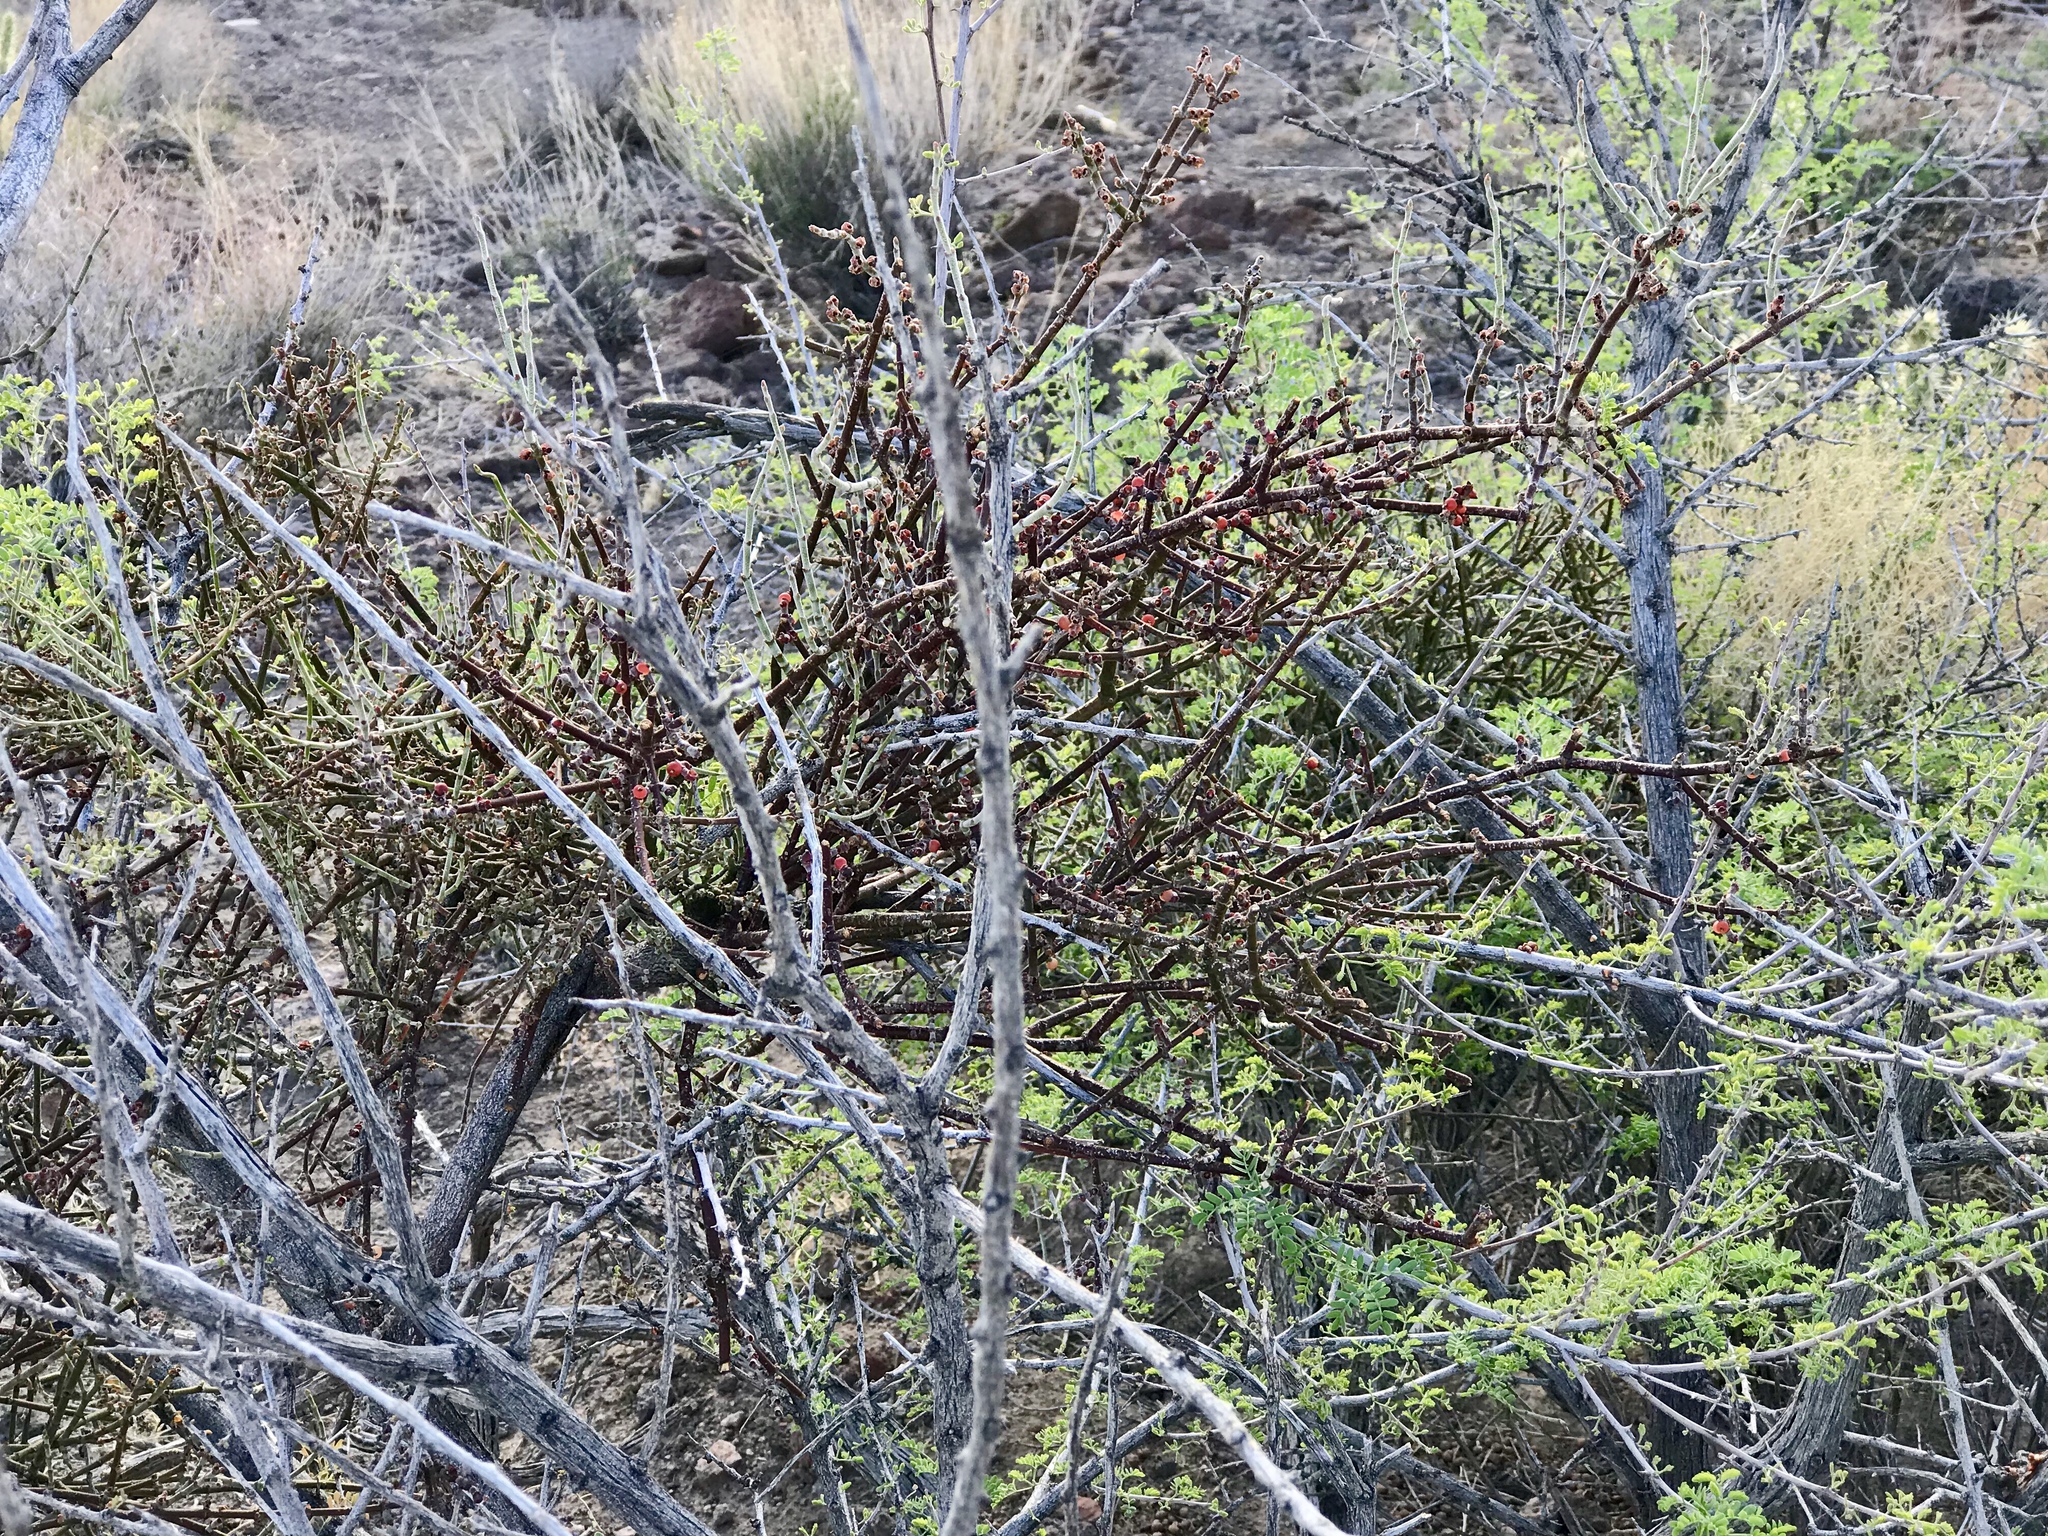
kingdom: Plantae
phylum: Tracheophyta
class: Magnoliopsida
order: Santalales
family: Viscaceae
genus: Phoradendron
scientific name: Phoradendron californicum
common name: Acacia mistletoe
